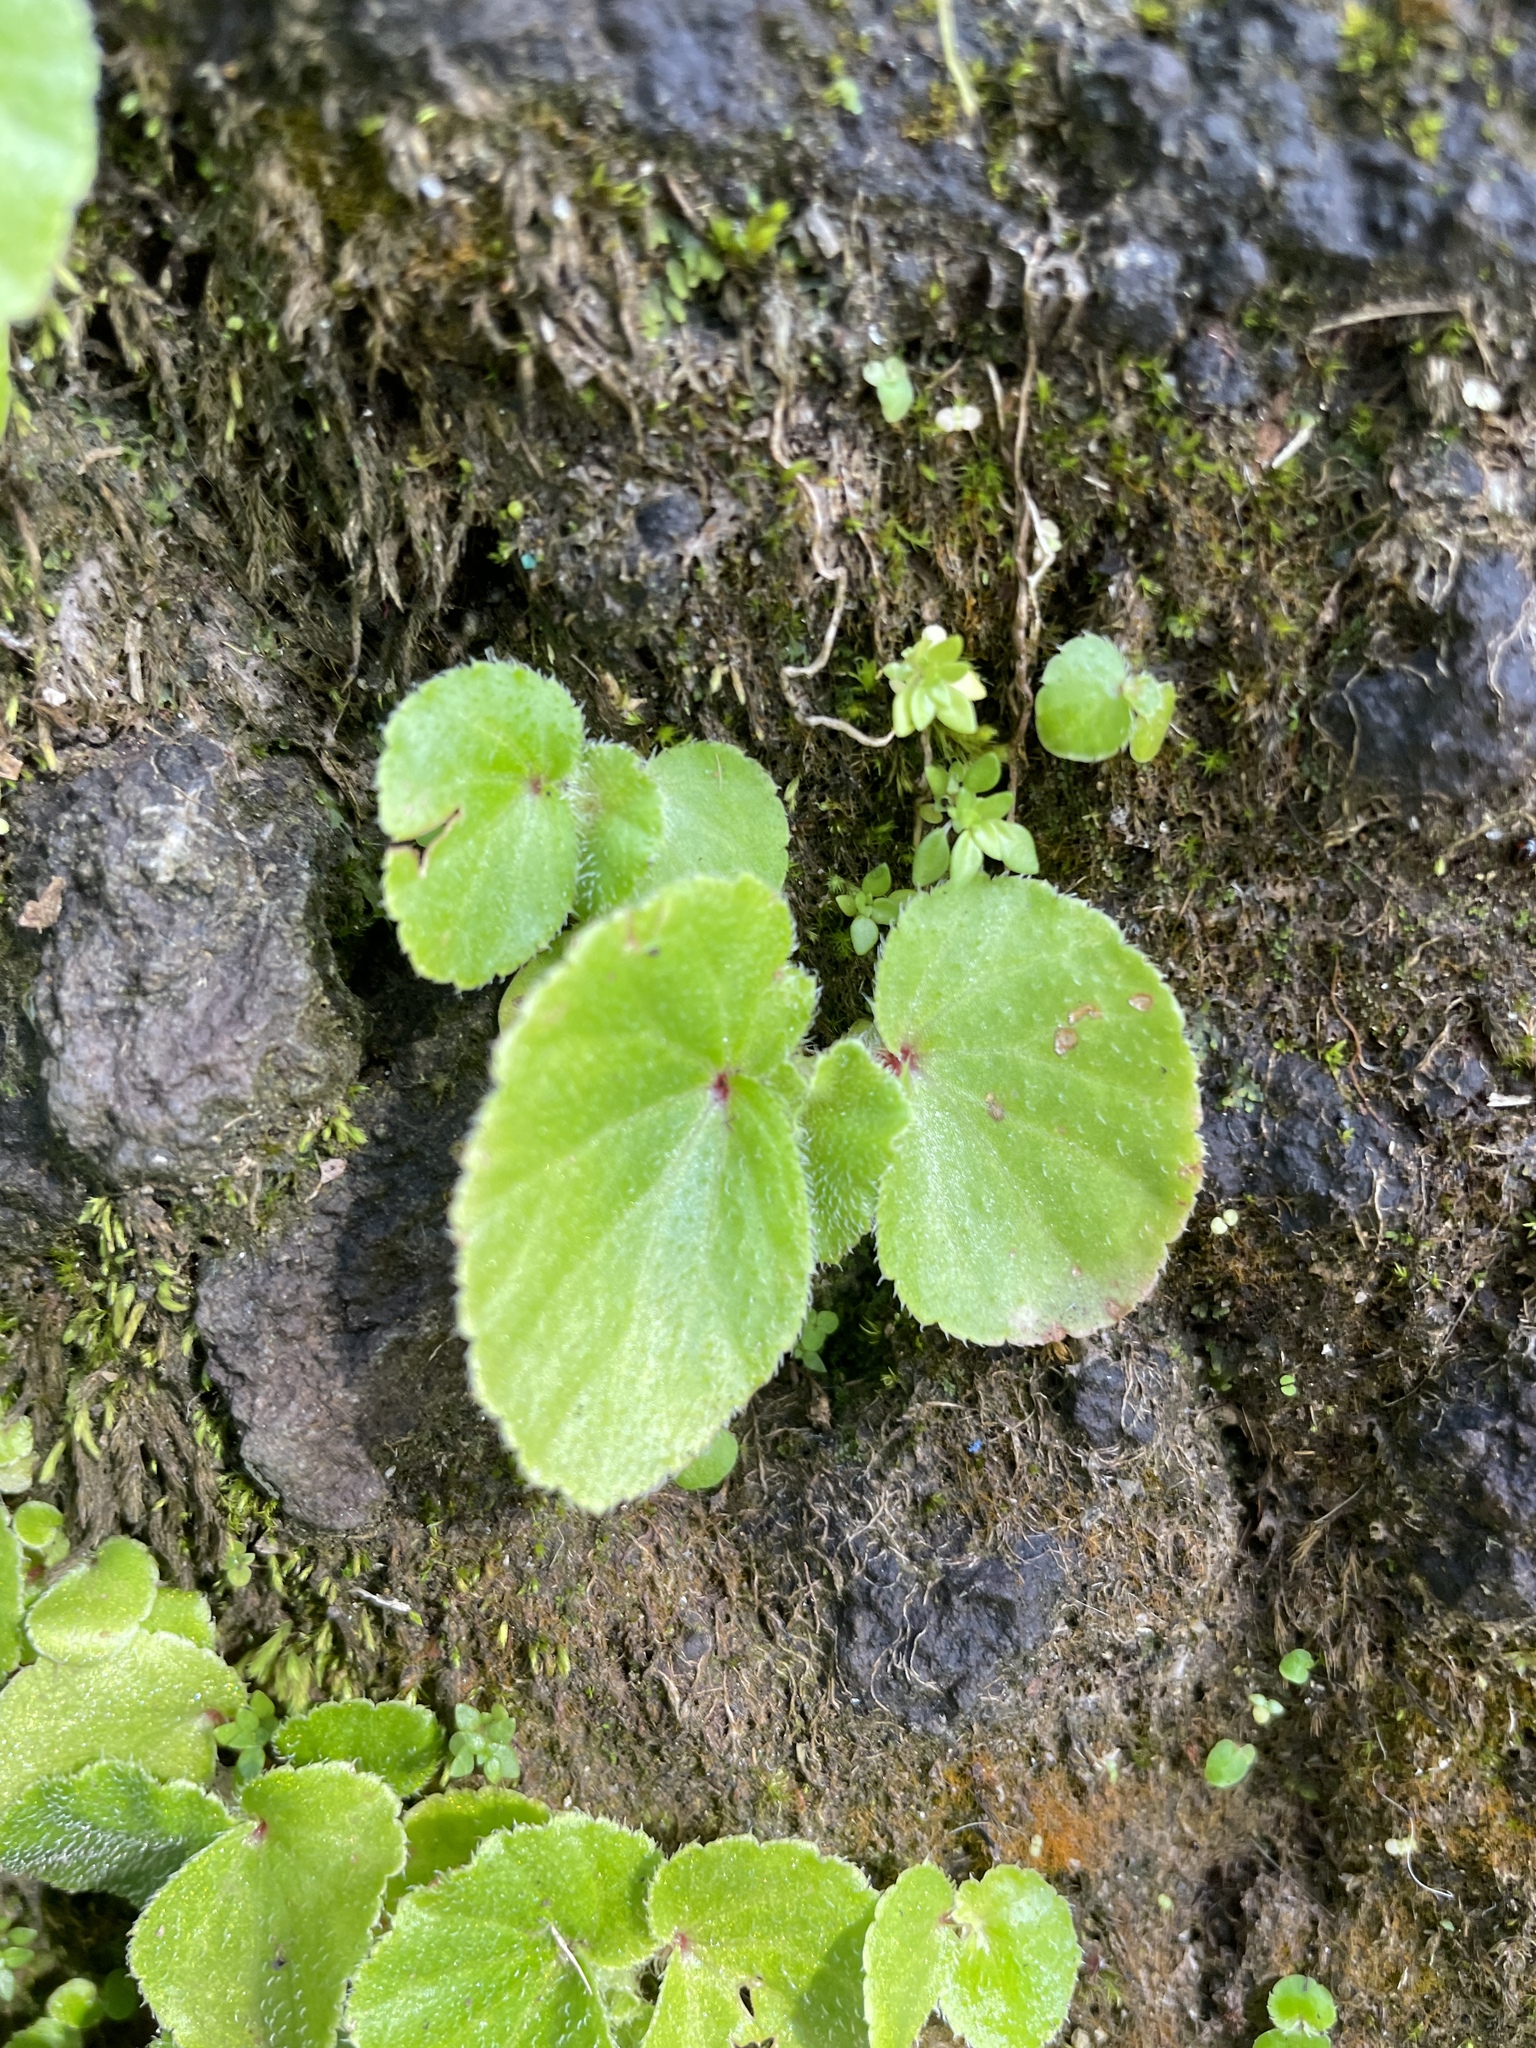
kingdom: Plantae
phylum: Tracheophyta
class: Magnoliopsida
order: Cucurbitales
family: Begoniaceae
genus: Begonia
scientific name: Begonia hirtella
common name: Brazilian begonia
